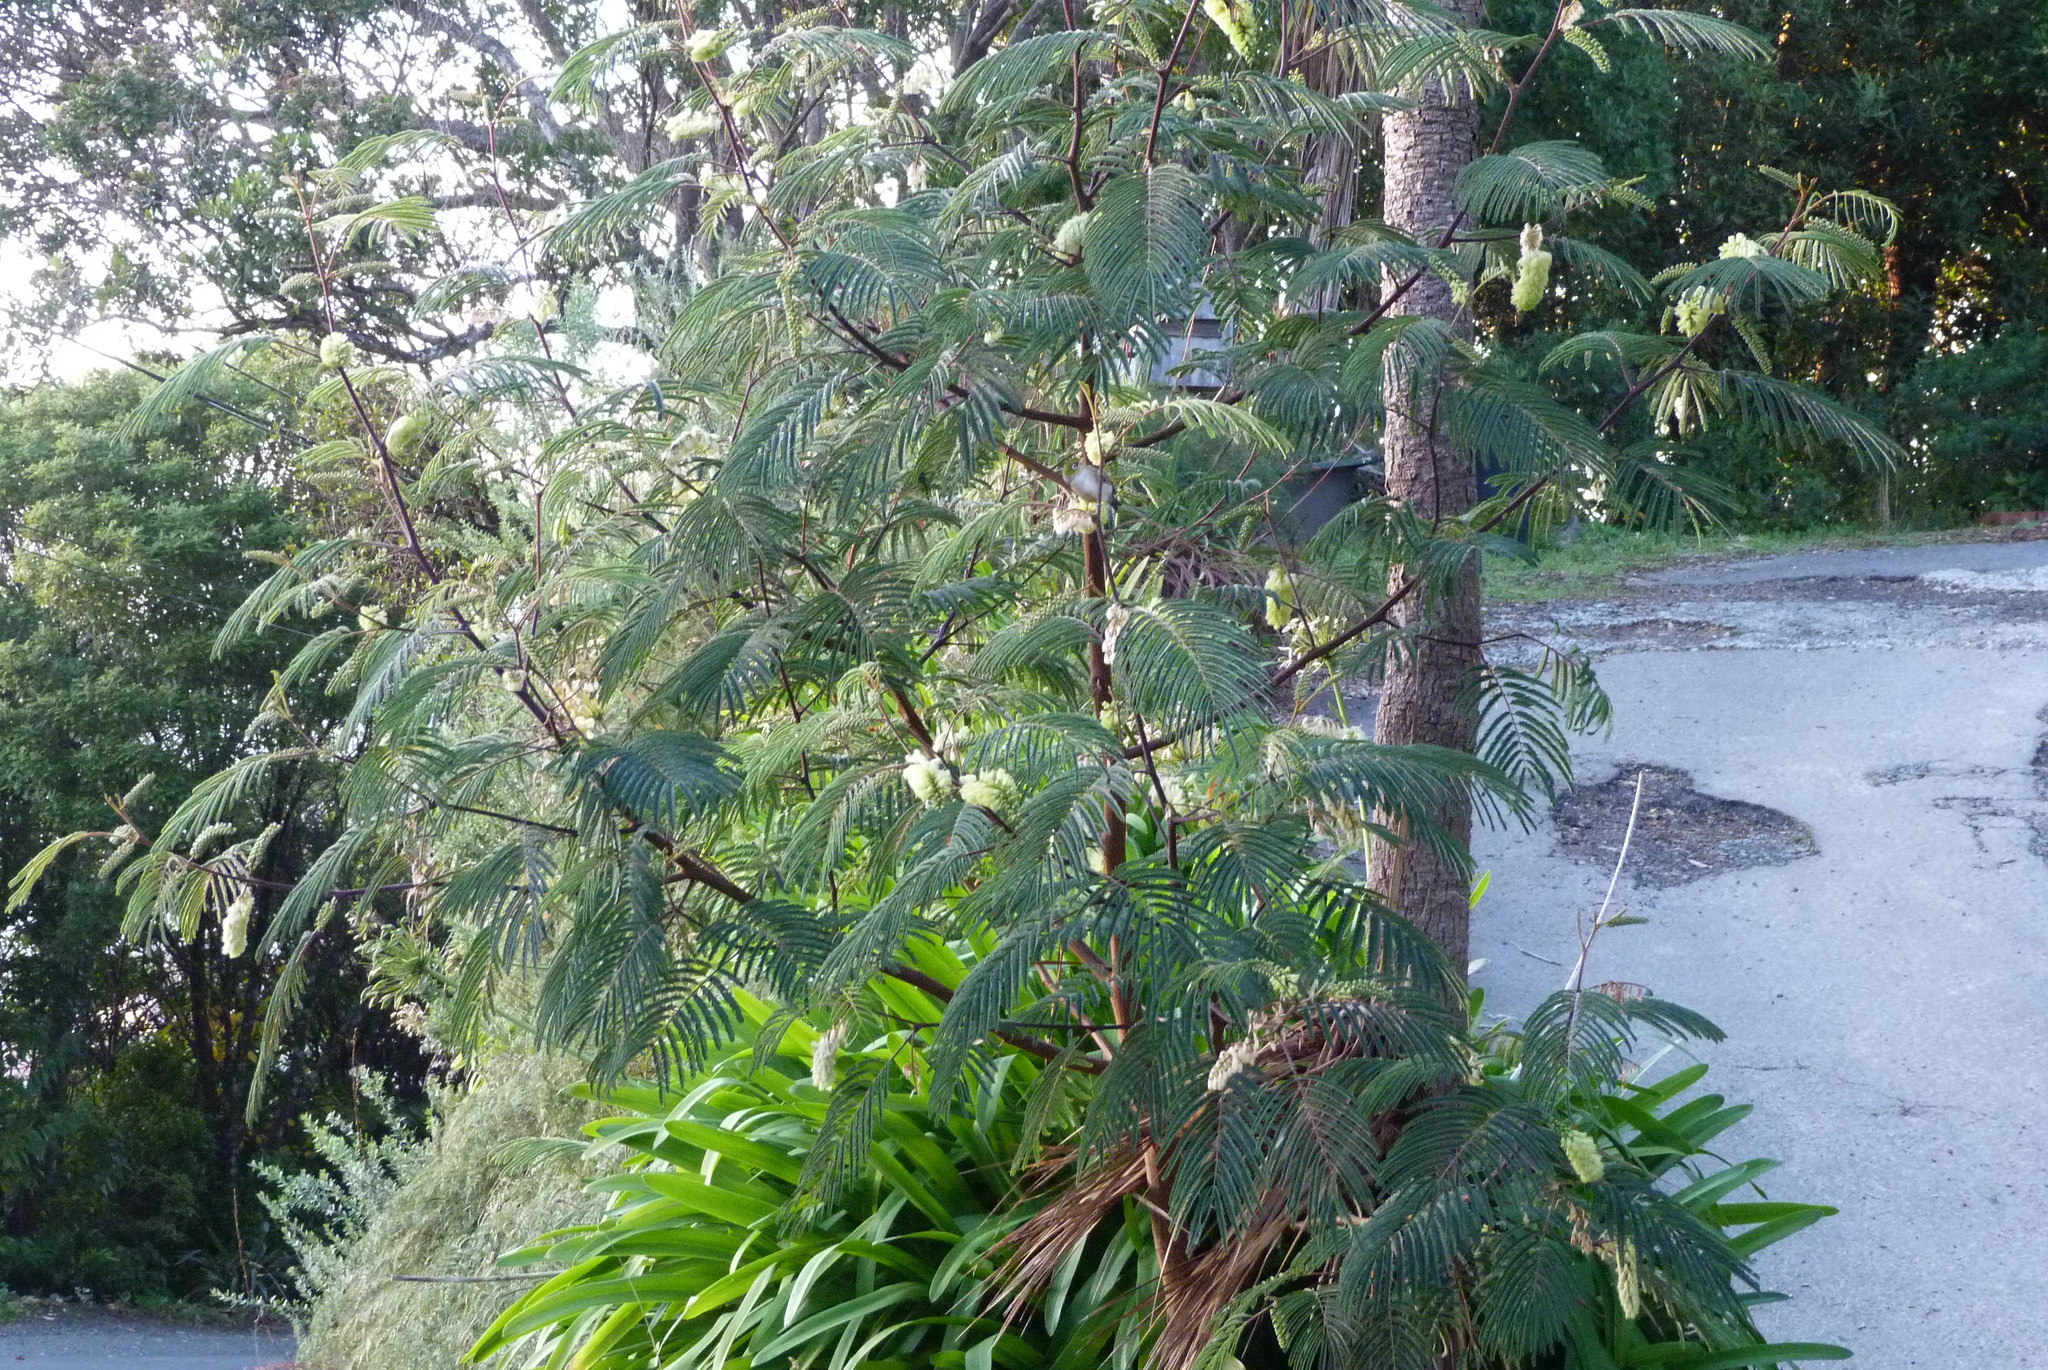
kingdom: Plantae
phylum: Tracheophyta
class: Magnoliopsida
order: Fabales
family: Fabaceae
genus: Paraserianthes
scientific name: Paraserianthes lophantha
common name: Plume albizia
